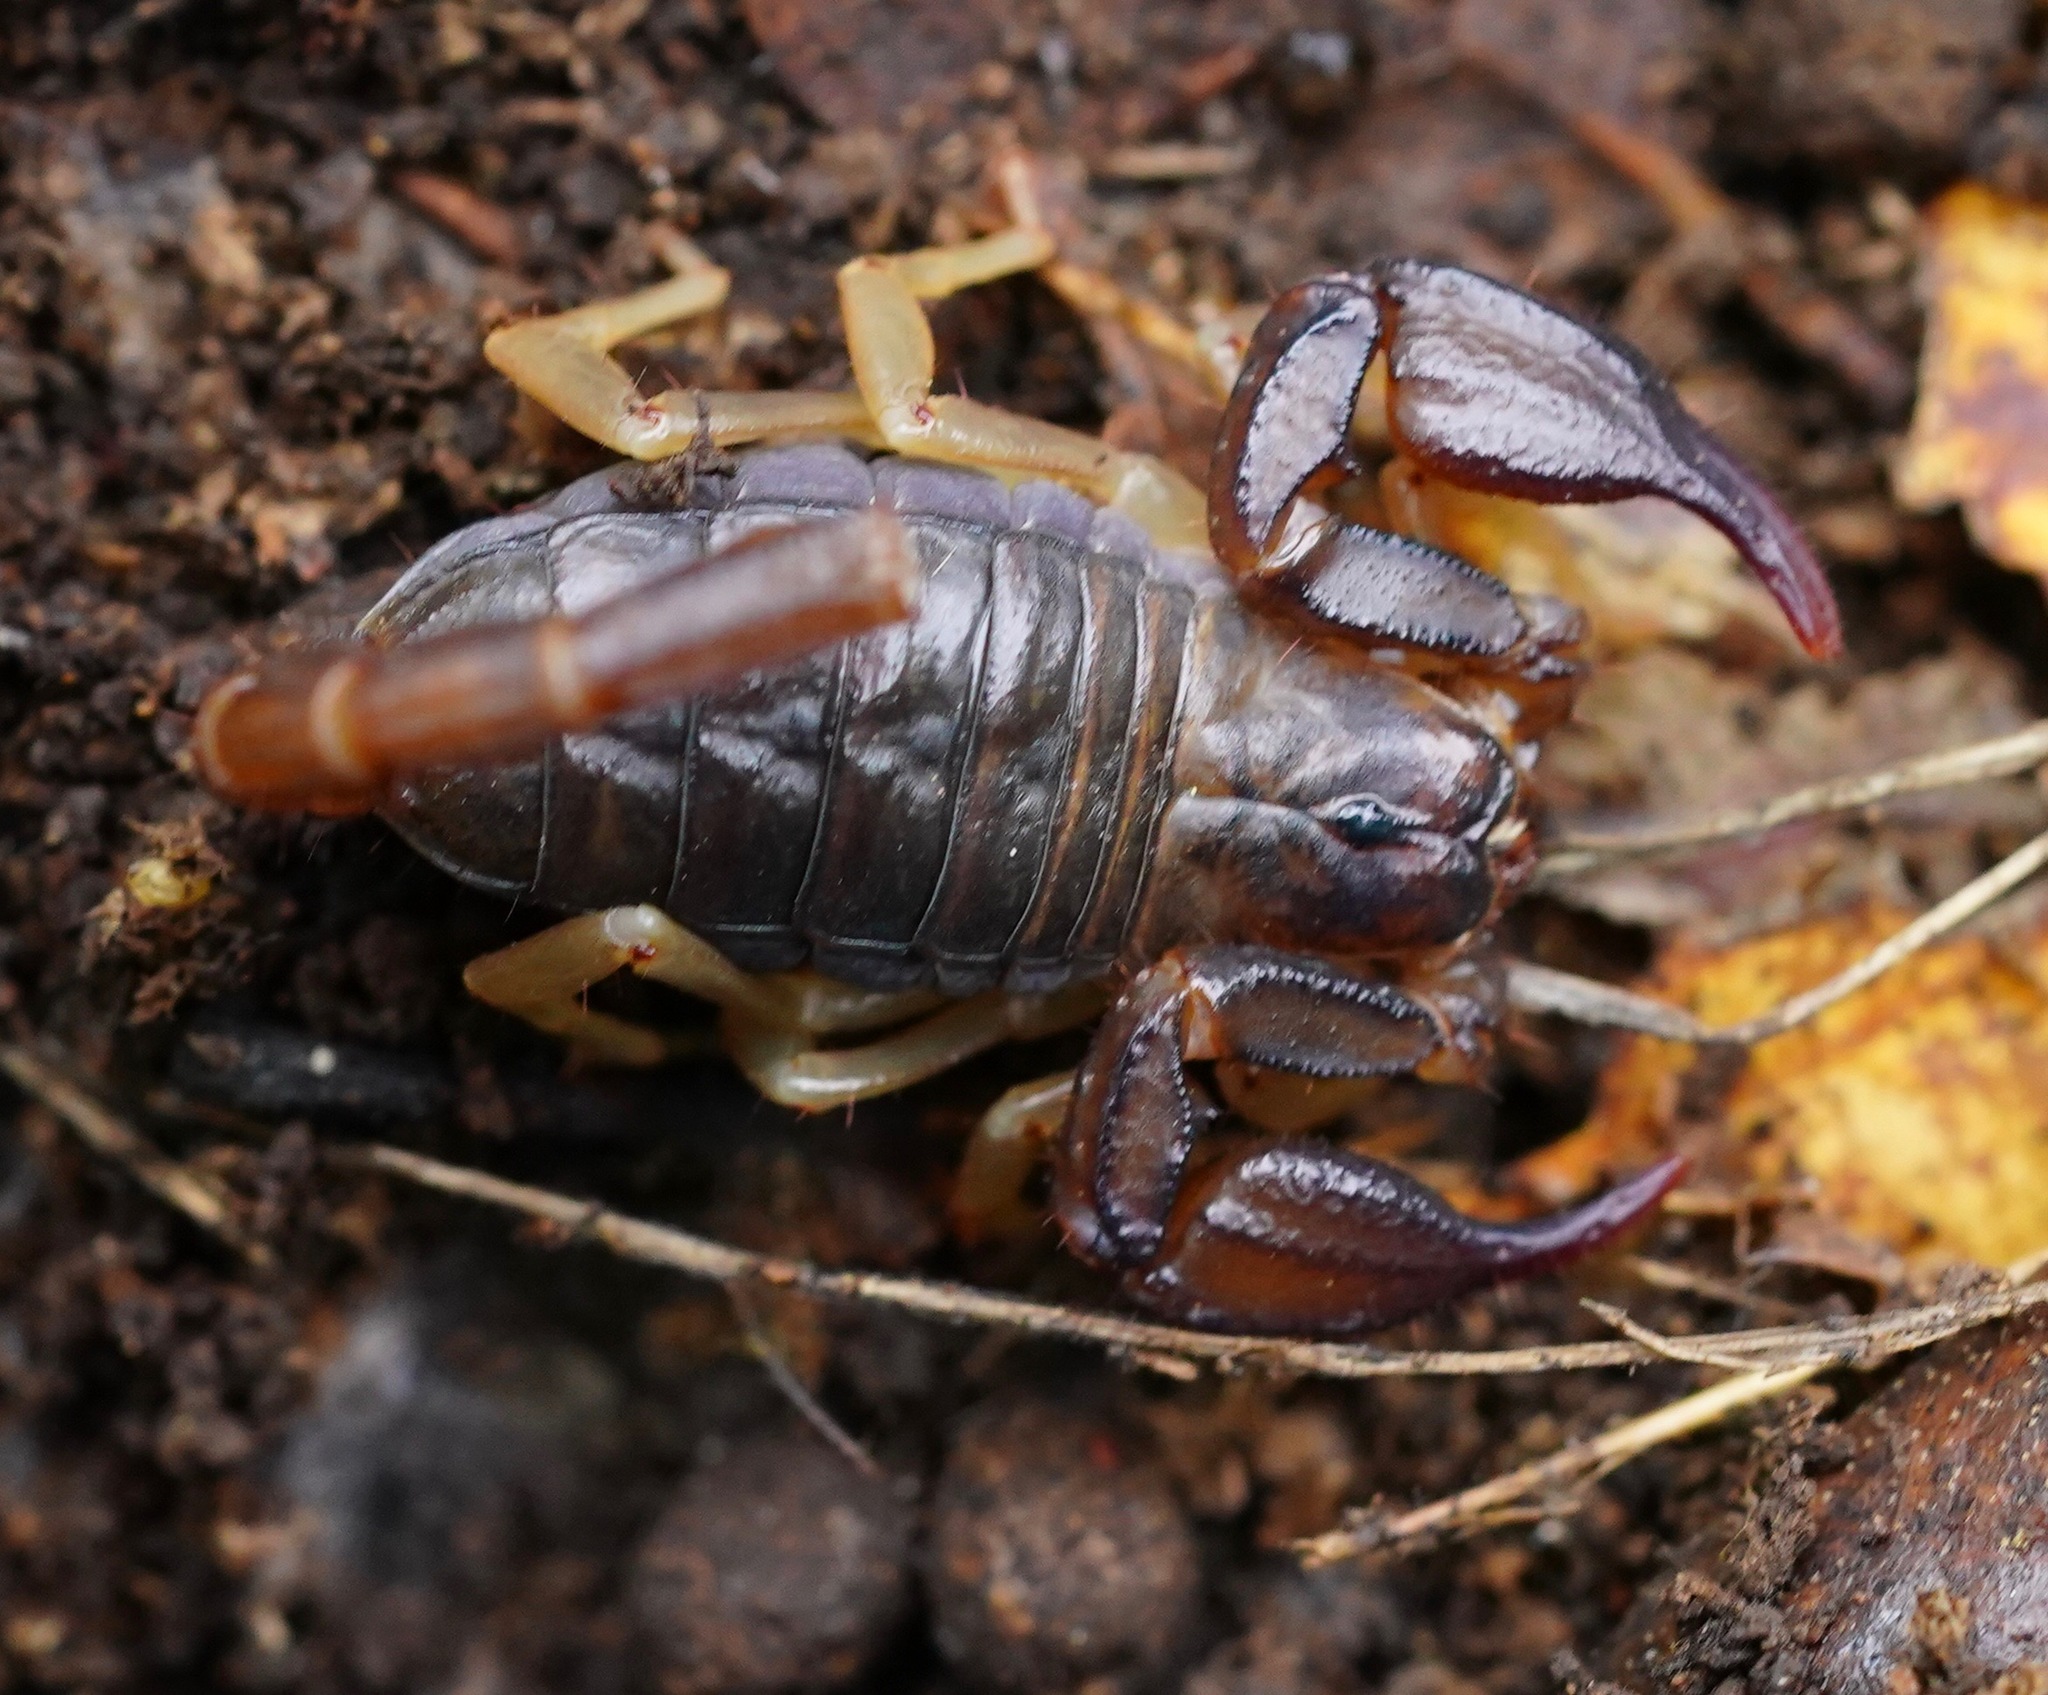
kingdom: Animalia
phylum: Arthropoda
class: Arachnida
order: Scorpiones
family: Chactidae
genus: Uroctonus
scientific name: Uroctonus mordax
